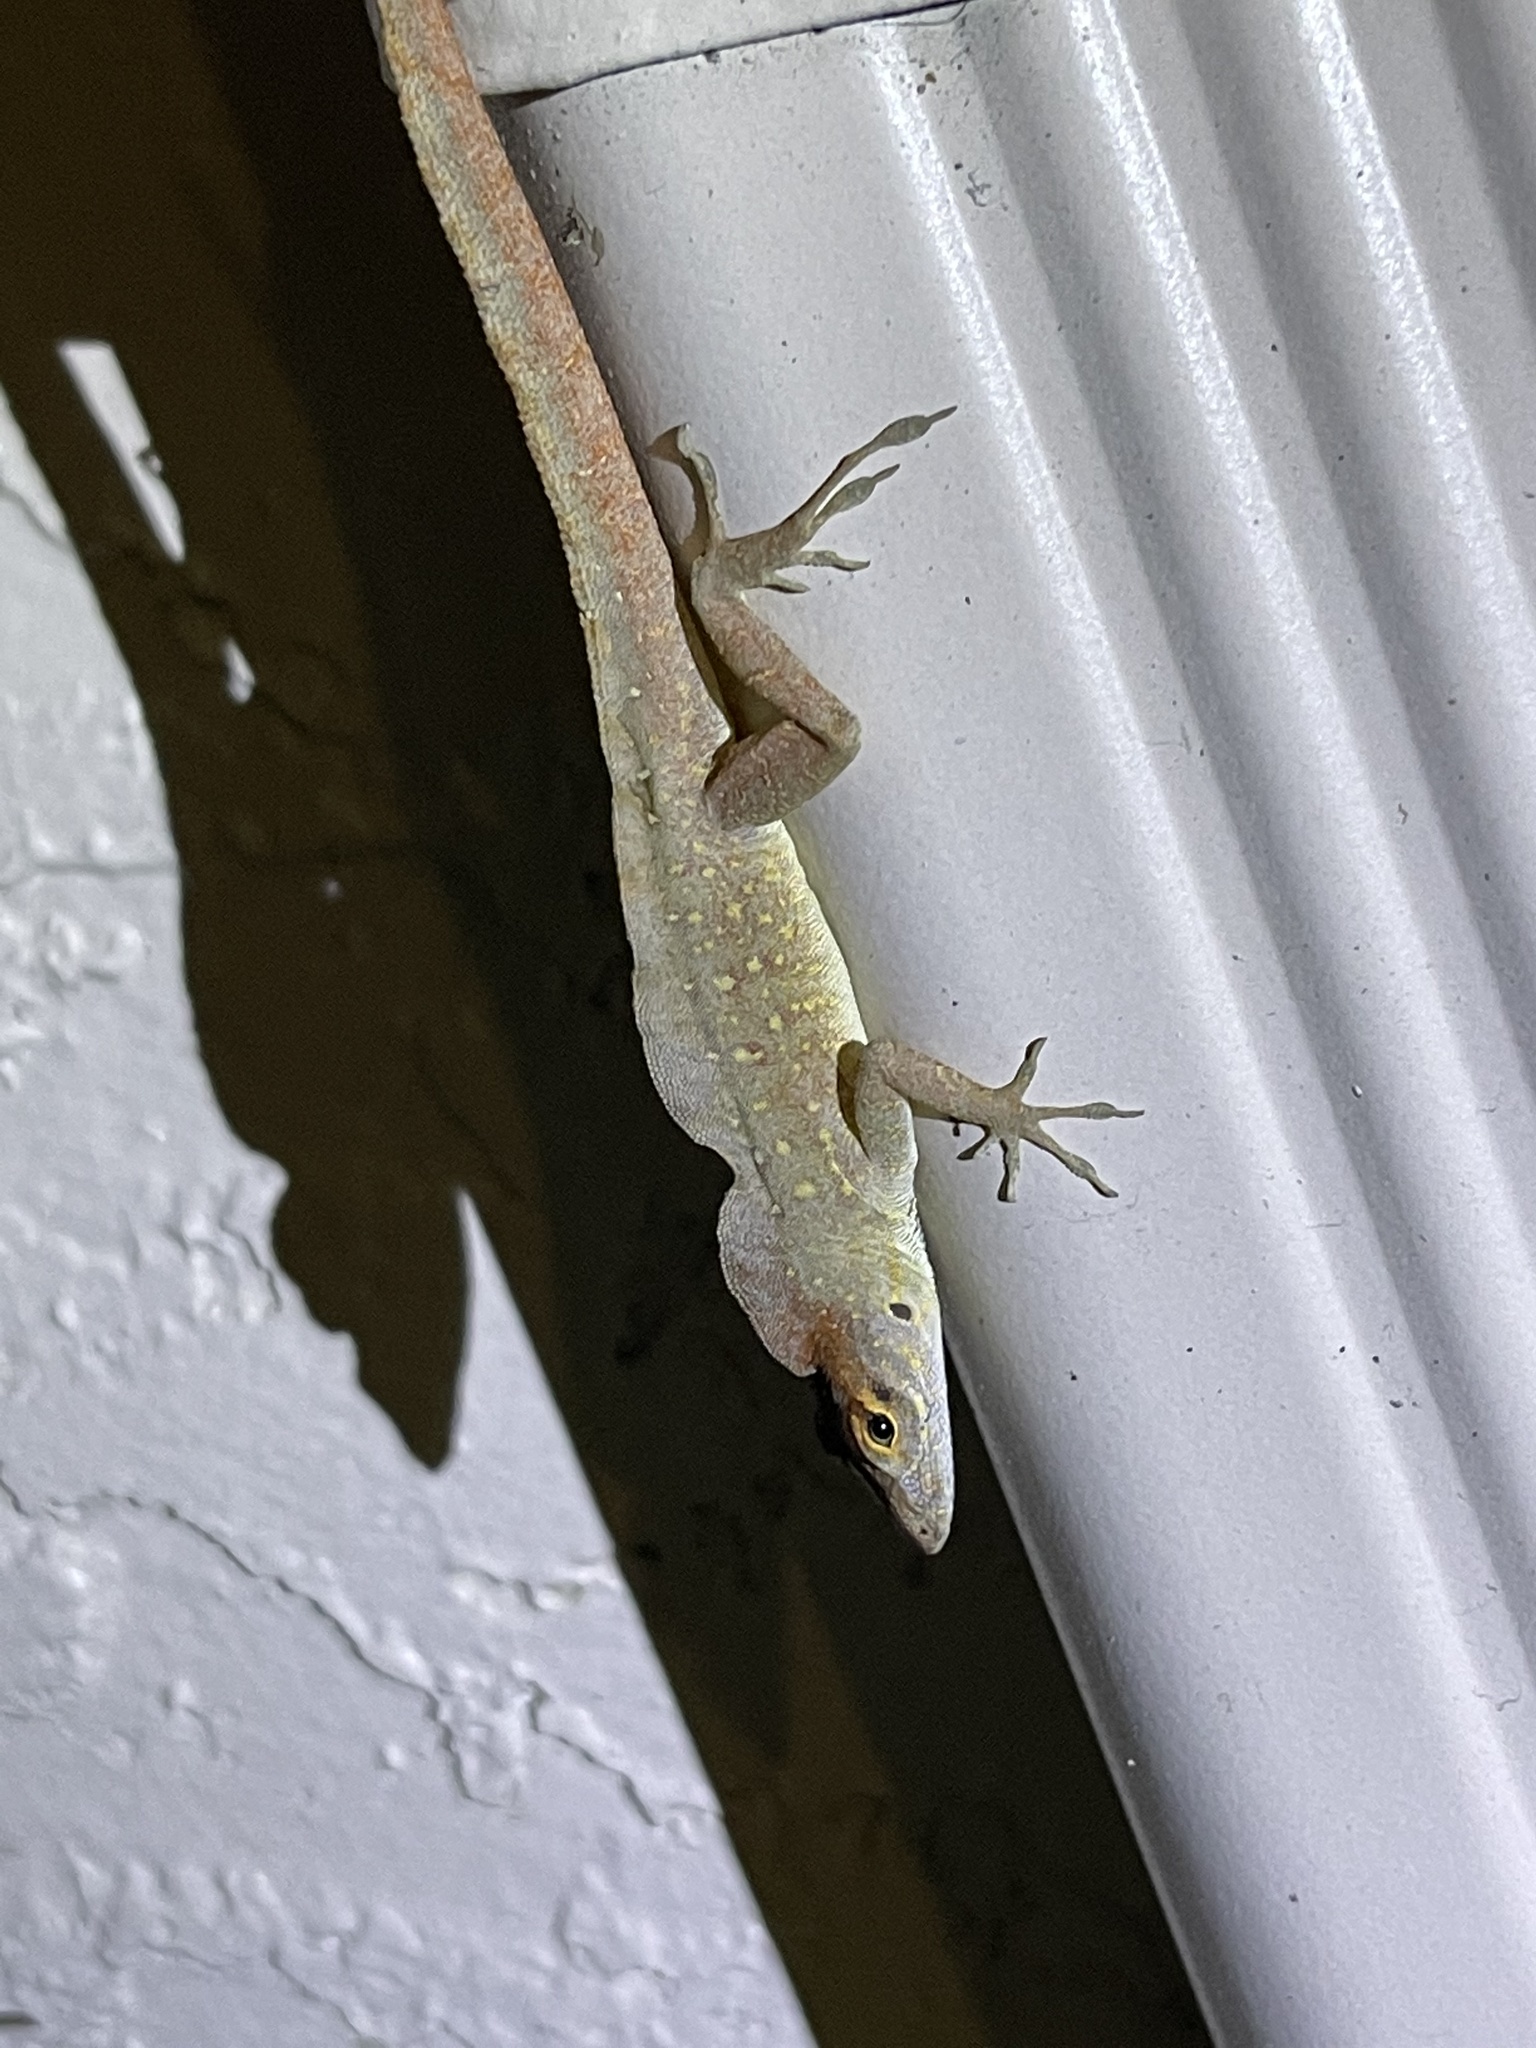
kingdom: Animalia
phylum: Chordata
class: Squamata
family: Dactyloidae
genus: Anolis
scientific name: Anolis sagrei
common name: Brown anole
